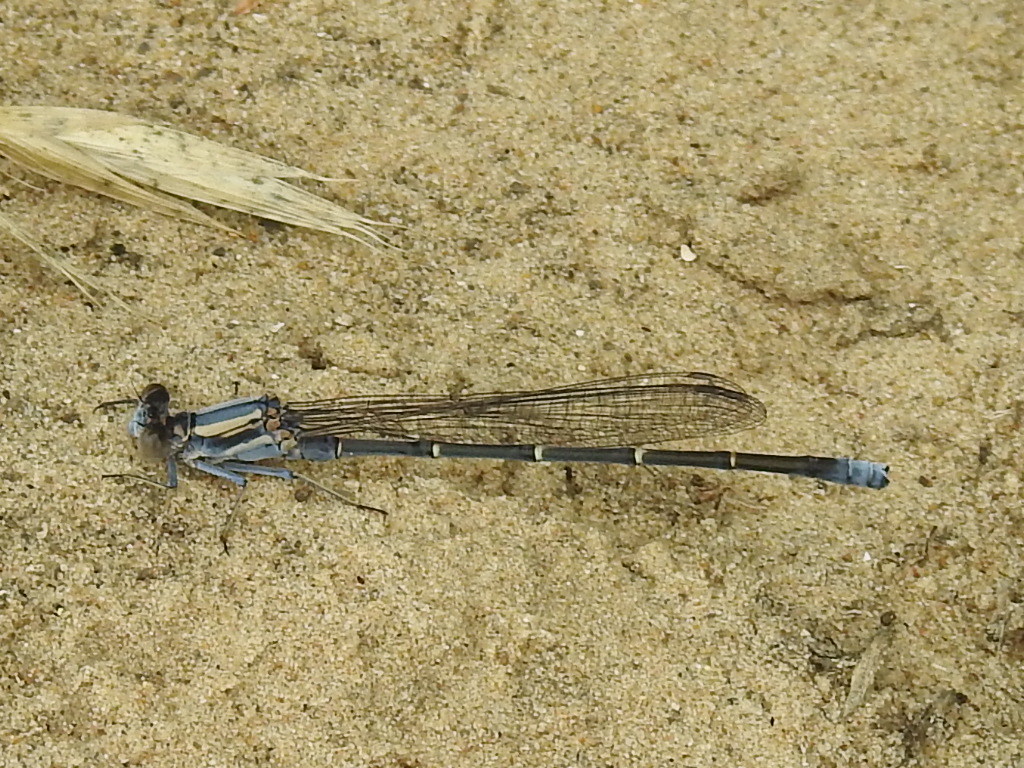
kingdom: Animalia
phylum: Arthropoda
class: Insecta
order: Odonata
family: Coenagrionidae
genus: Argia
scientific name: Argia moesta
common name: Powdered dancer
